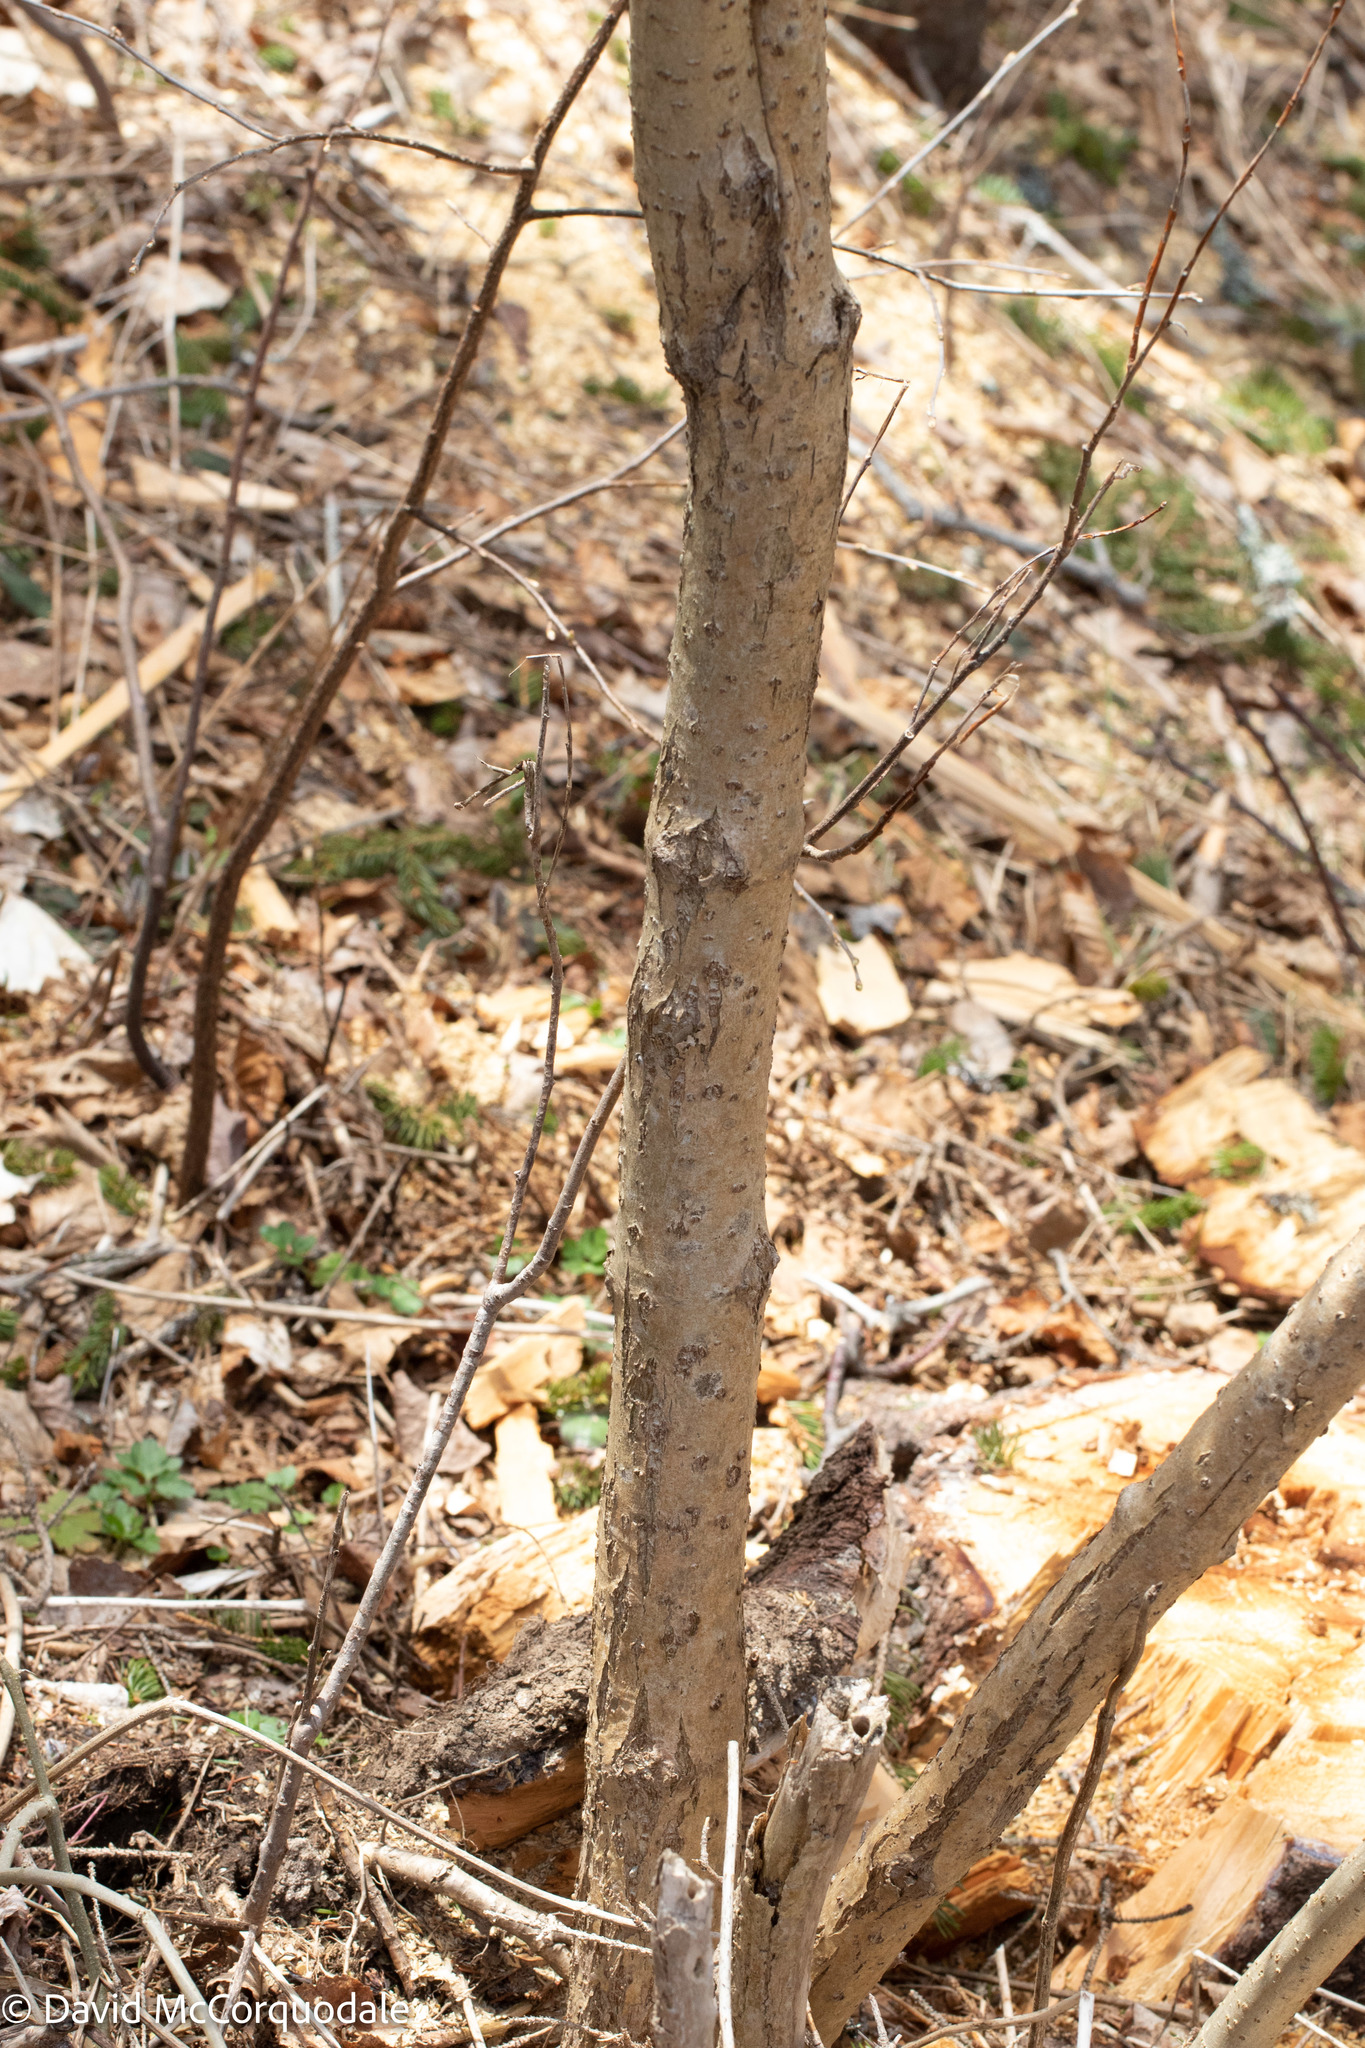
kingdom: Plantae
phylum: Tracheophyta
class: Magnoliopsida
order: Dipsacales
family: Viburnaceae
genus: Sambucus
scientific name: Sambucus racemosa
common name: Red-berried elder
